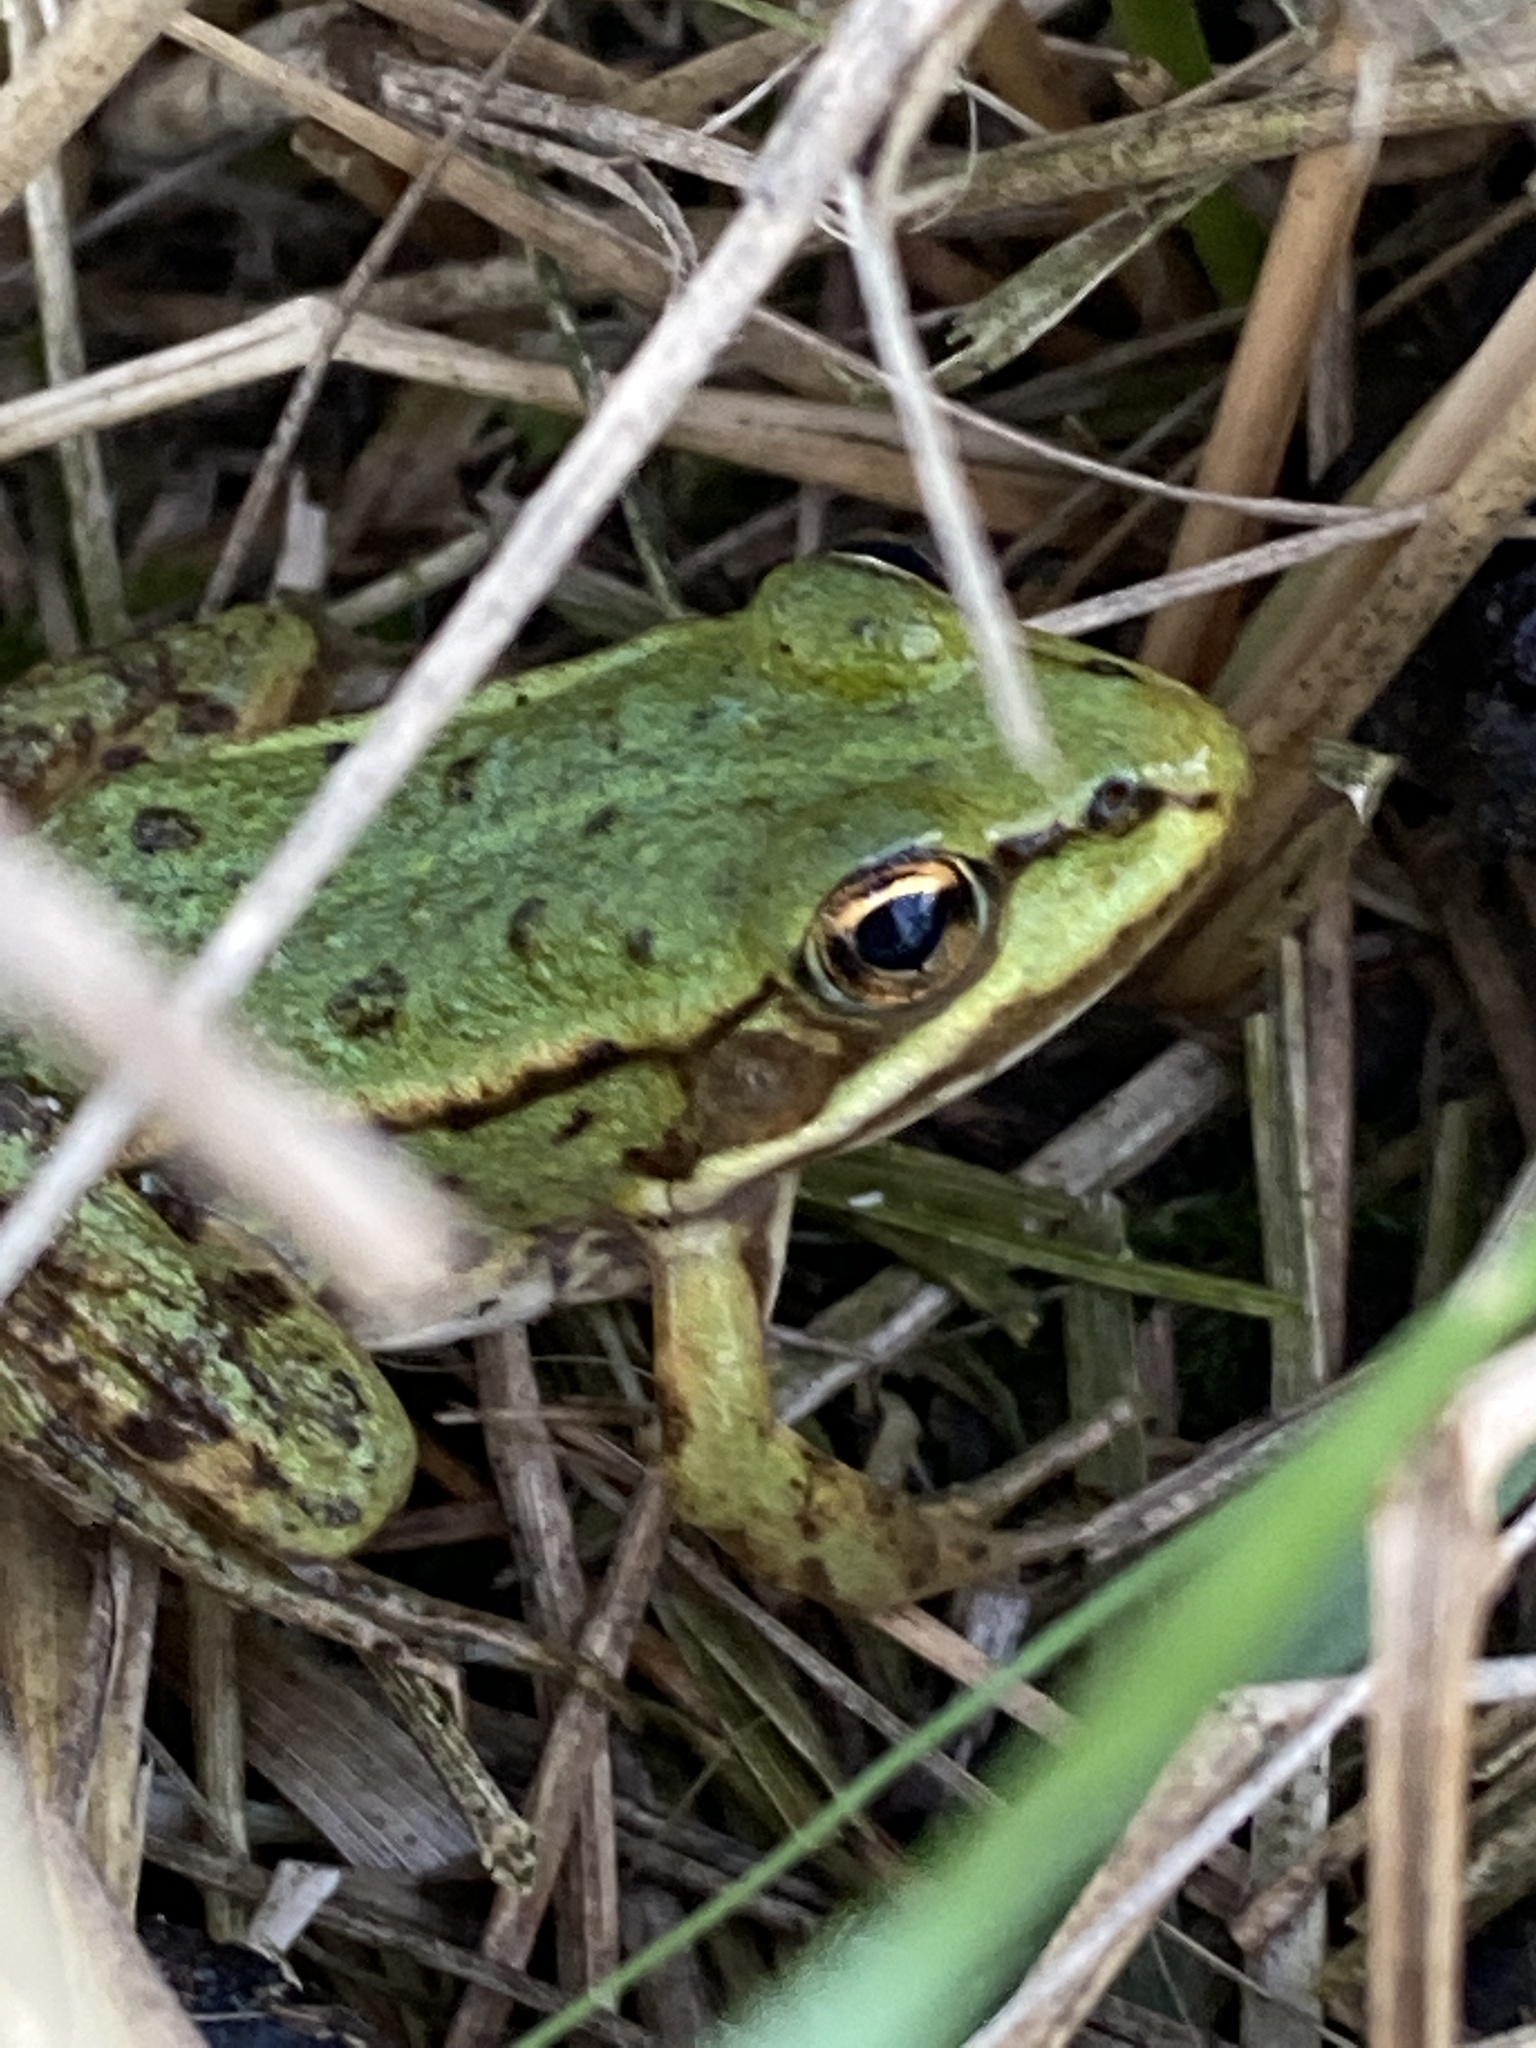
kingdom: Animalia
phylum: Chordata
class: Amphibia
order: Anura
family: Ranidae
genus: Pelophylax
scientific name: Pelophylax
